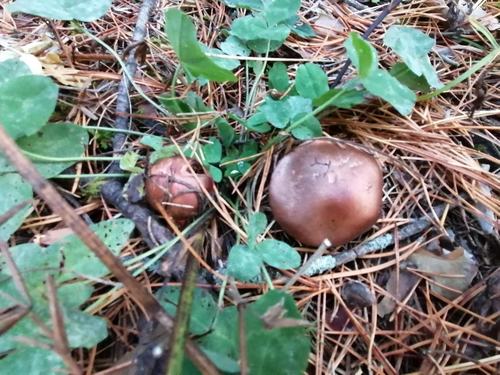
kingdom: Fungi
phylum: Basidiomycota
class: Agaricomycetes
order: Boletales
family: Gomphidiaceae
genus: Chroogomphus
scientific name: Chroogomphus rutilus
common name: Copper spike
